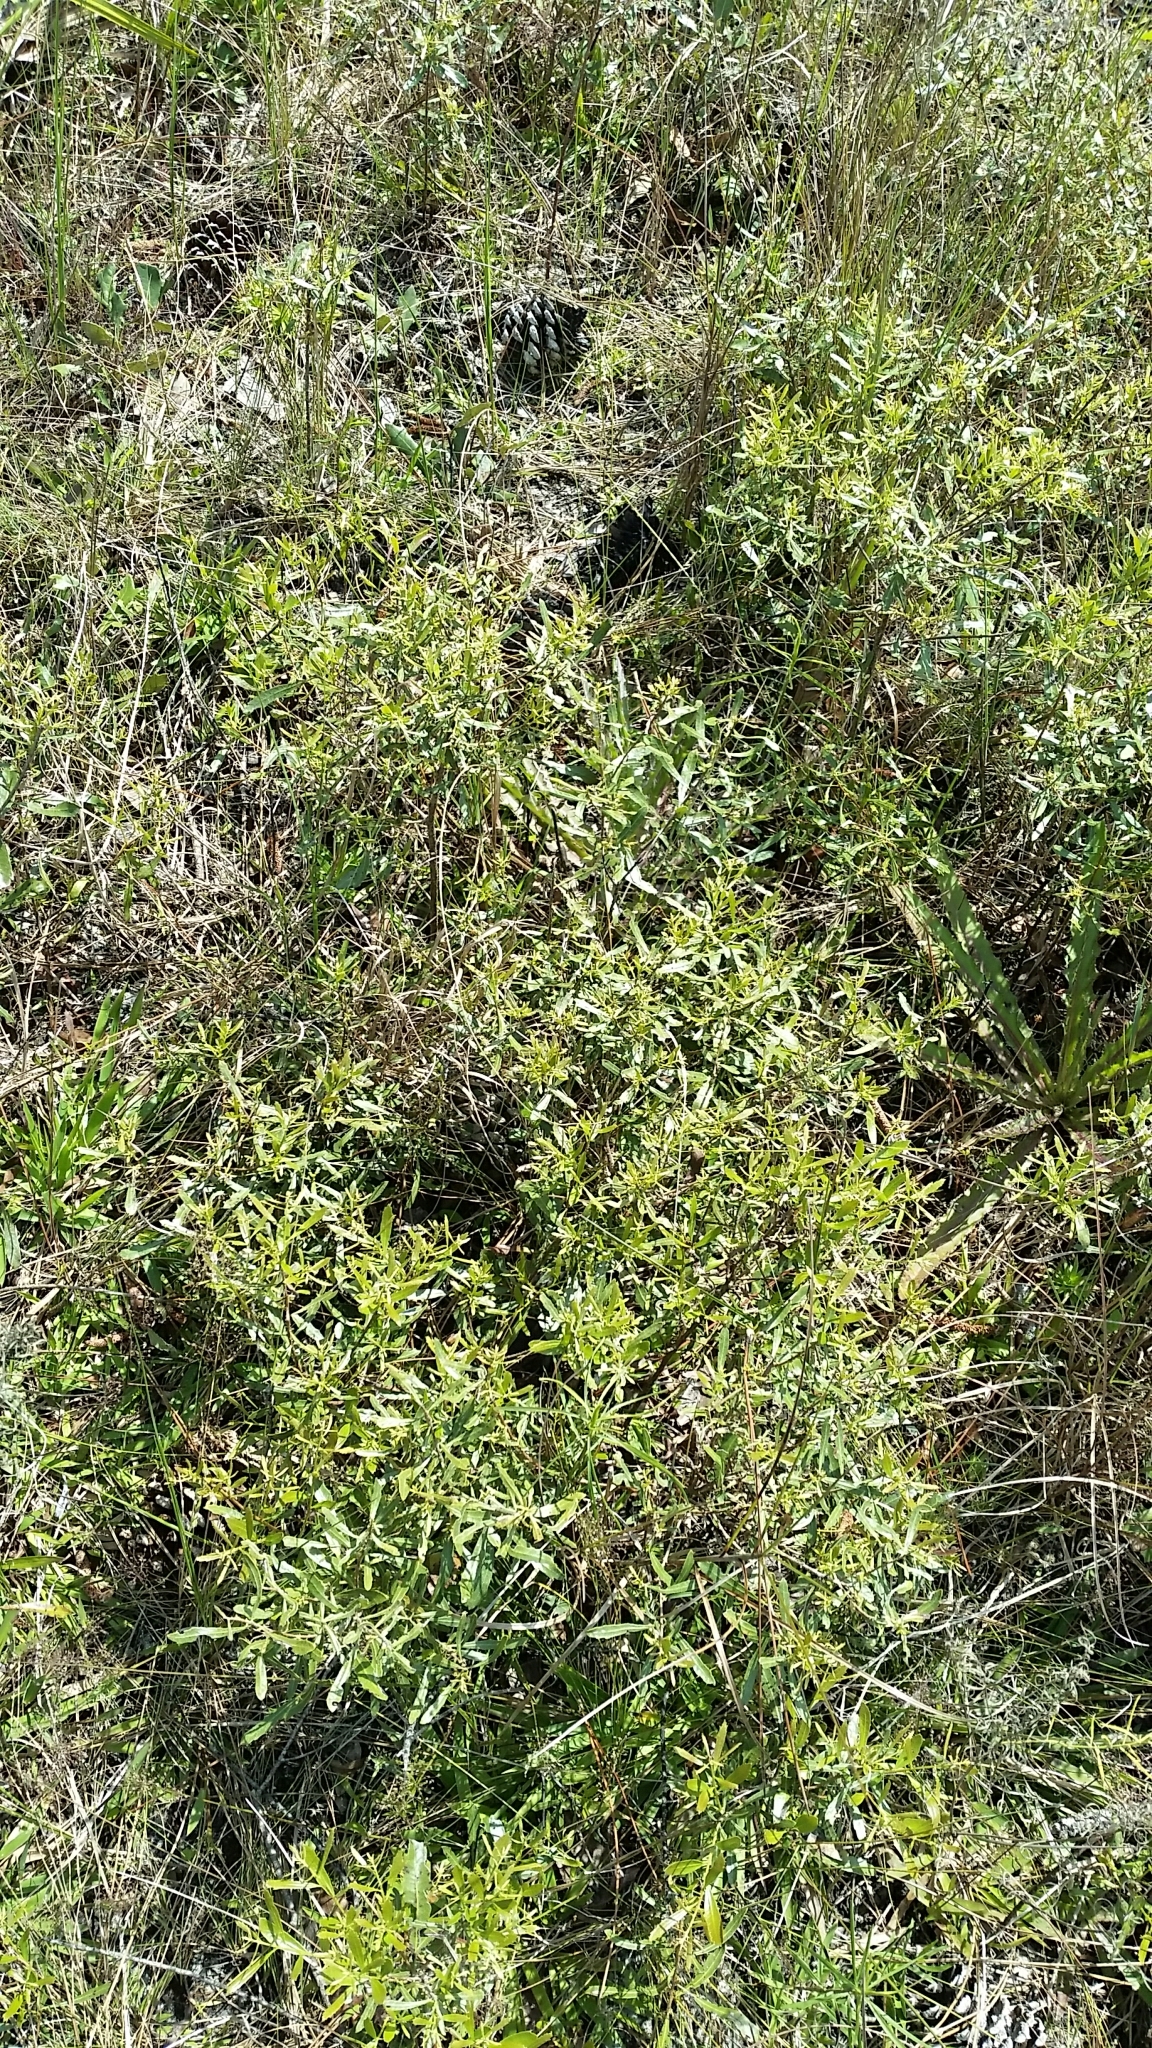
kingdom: Plantae
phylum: Tracheophyta
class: Magnoliopsida
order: Fagales
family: Myricaceae
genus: Morella
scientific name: Morella cerifera
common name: Wax myrtle
